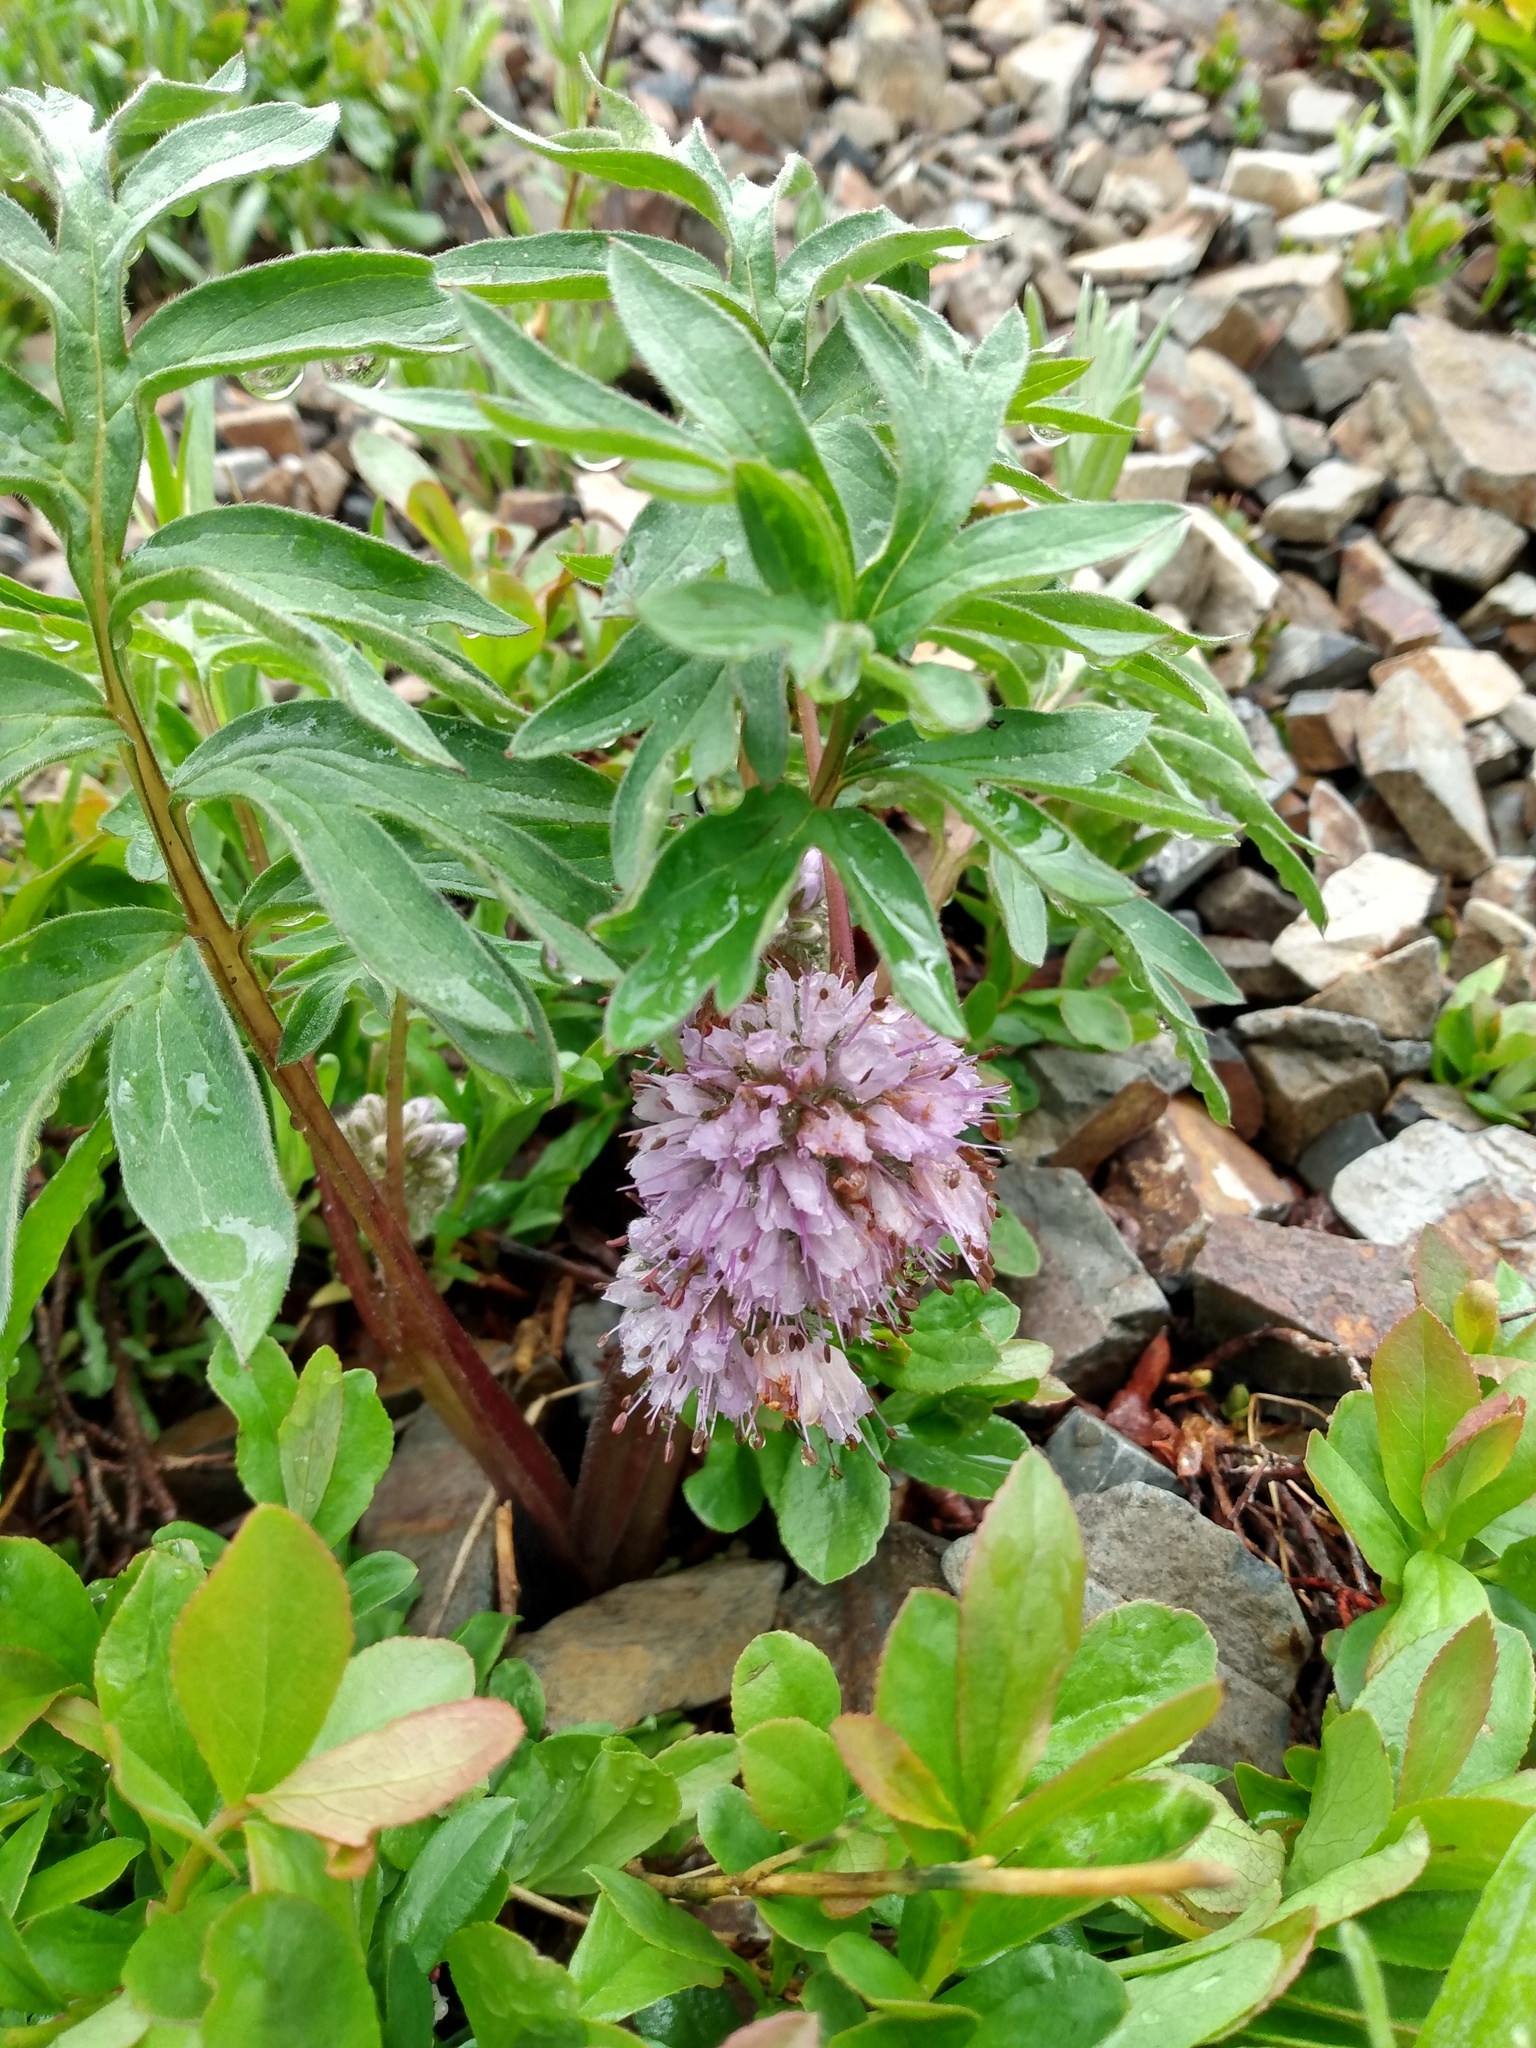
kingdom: Plantae
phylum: Tracheophyta
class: Magnoliopsida
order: Boraginales
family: Hydrophyllaceae
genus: Hydrophyllum
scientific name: Hydrophyllum capitatum
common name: Woollen-breeches
